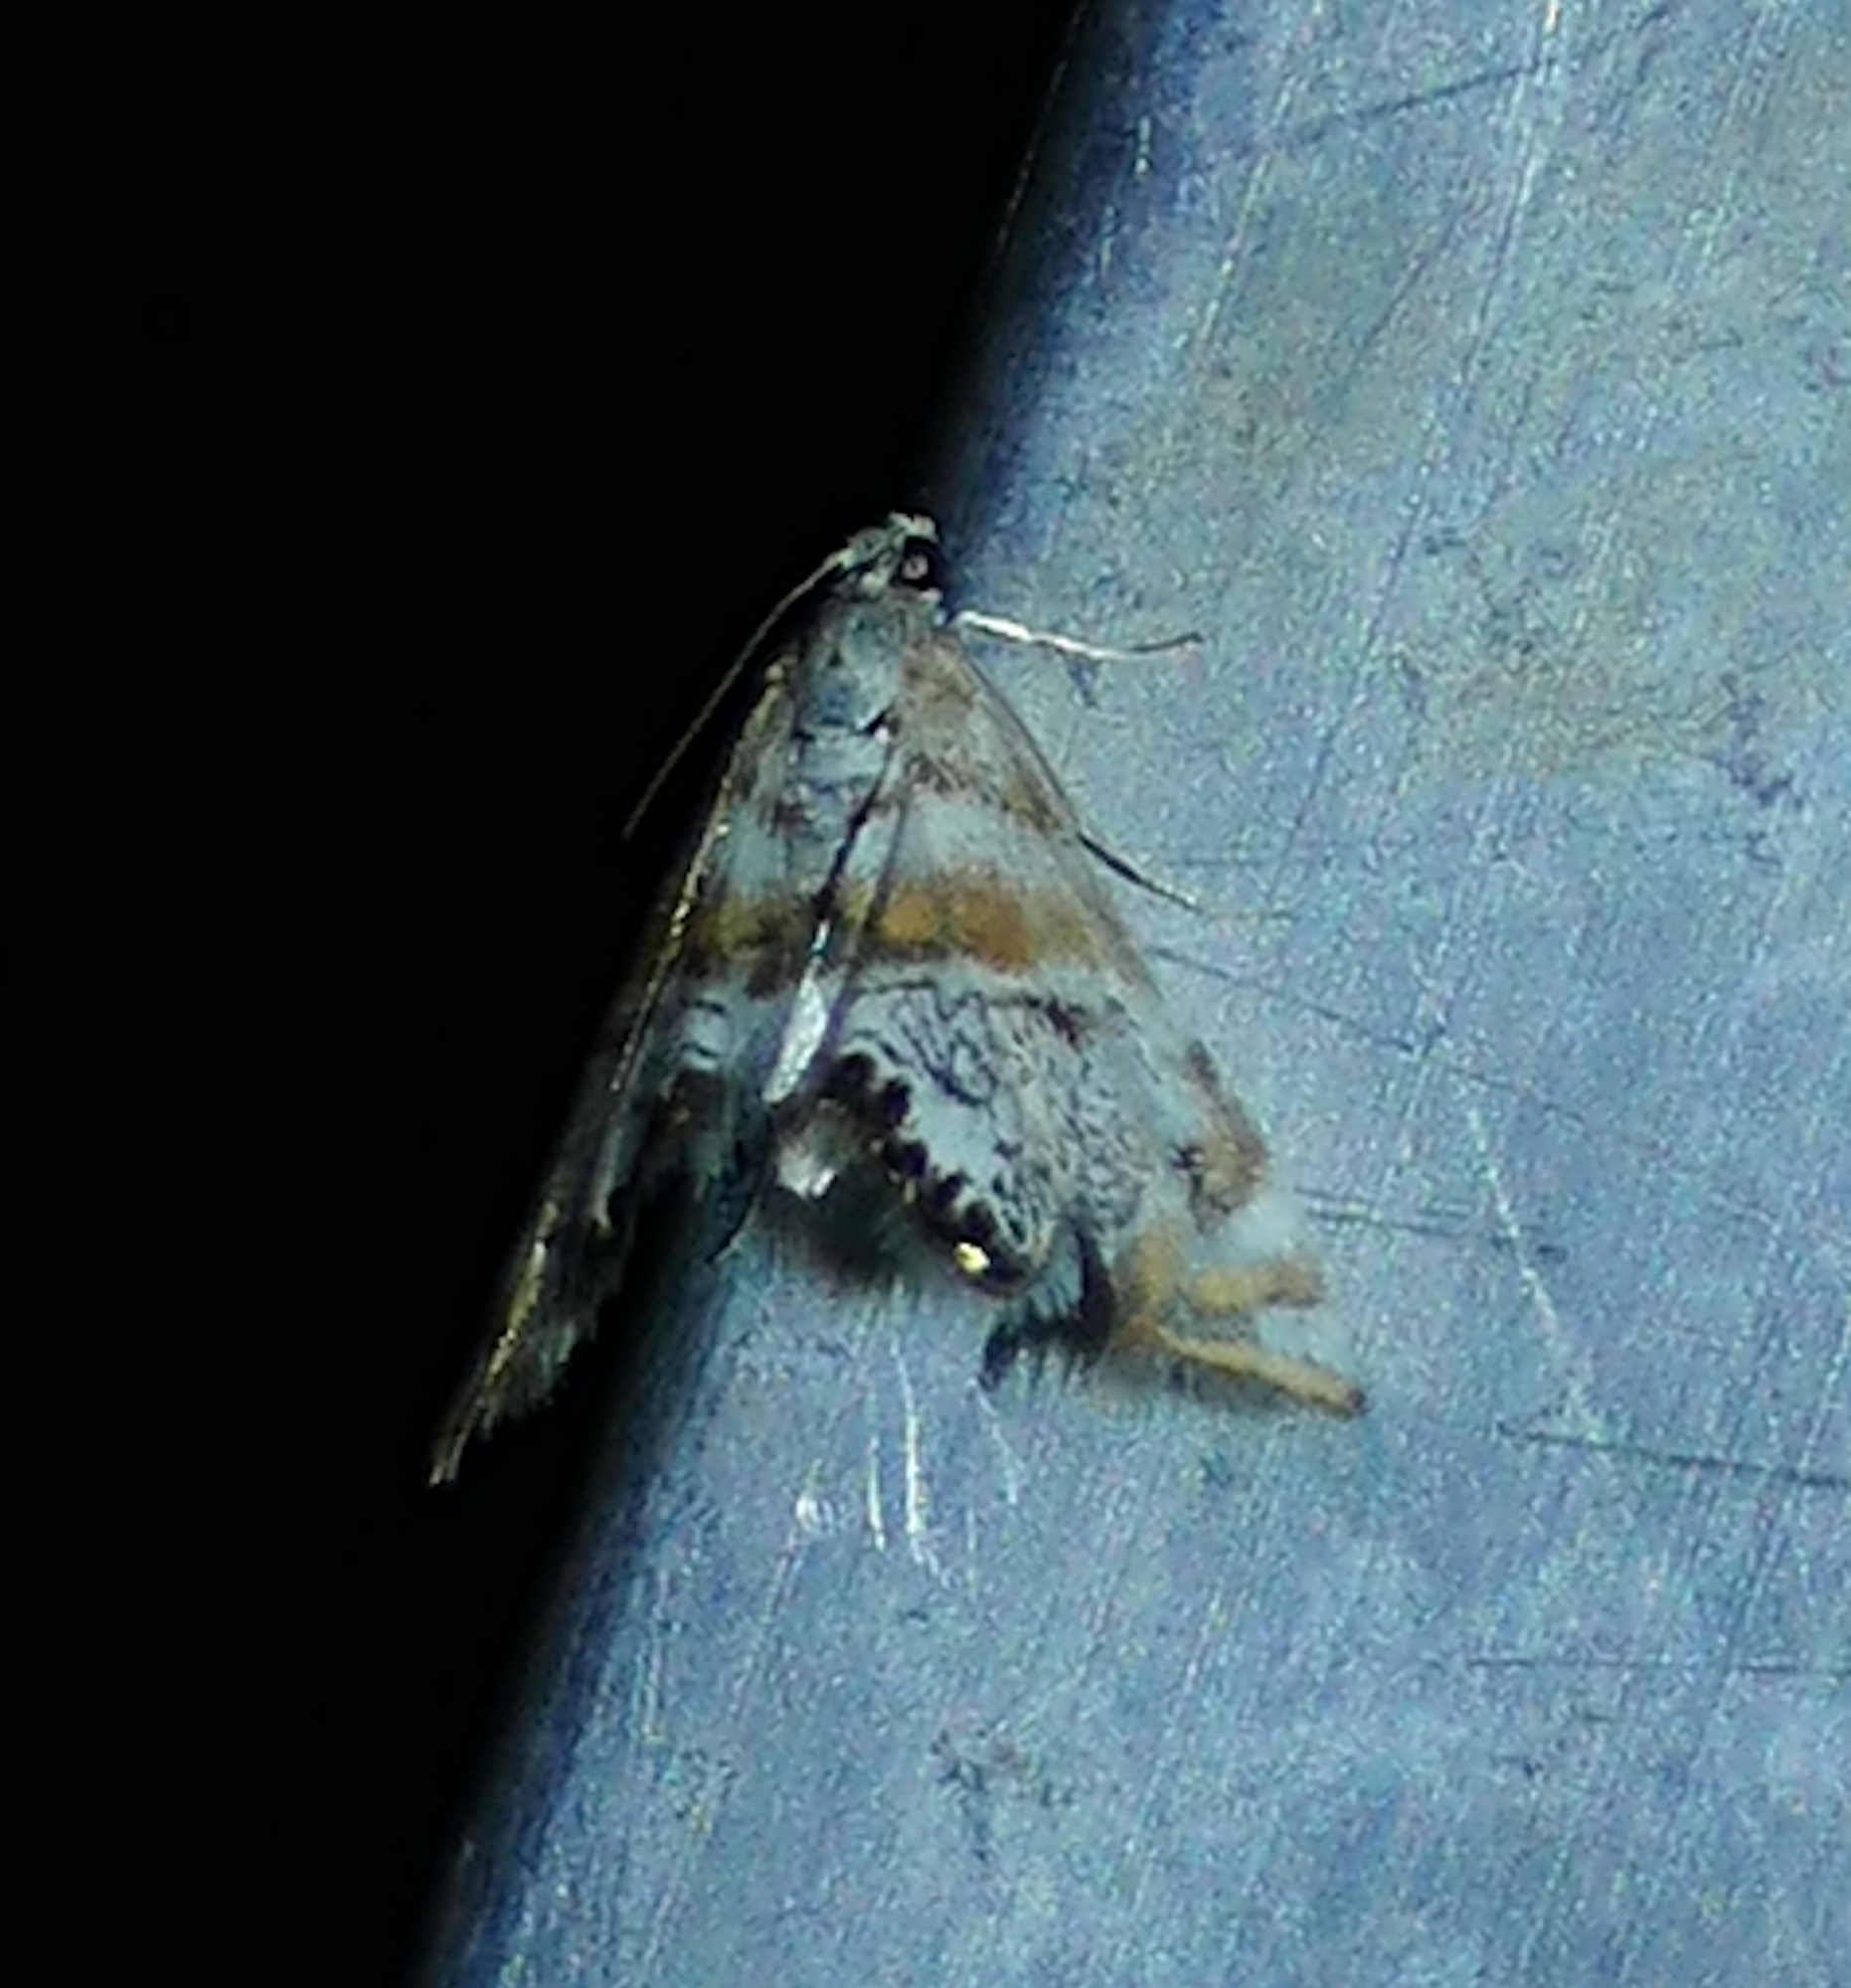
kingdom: Animalia
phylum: Arthropoda
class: Insecta
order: Lepidoptera
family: Crambidae
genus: Petrophila
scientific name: Petrophila
